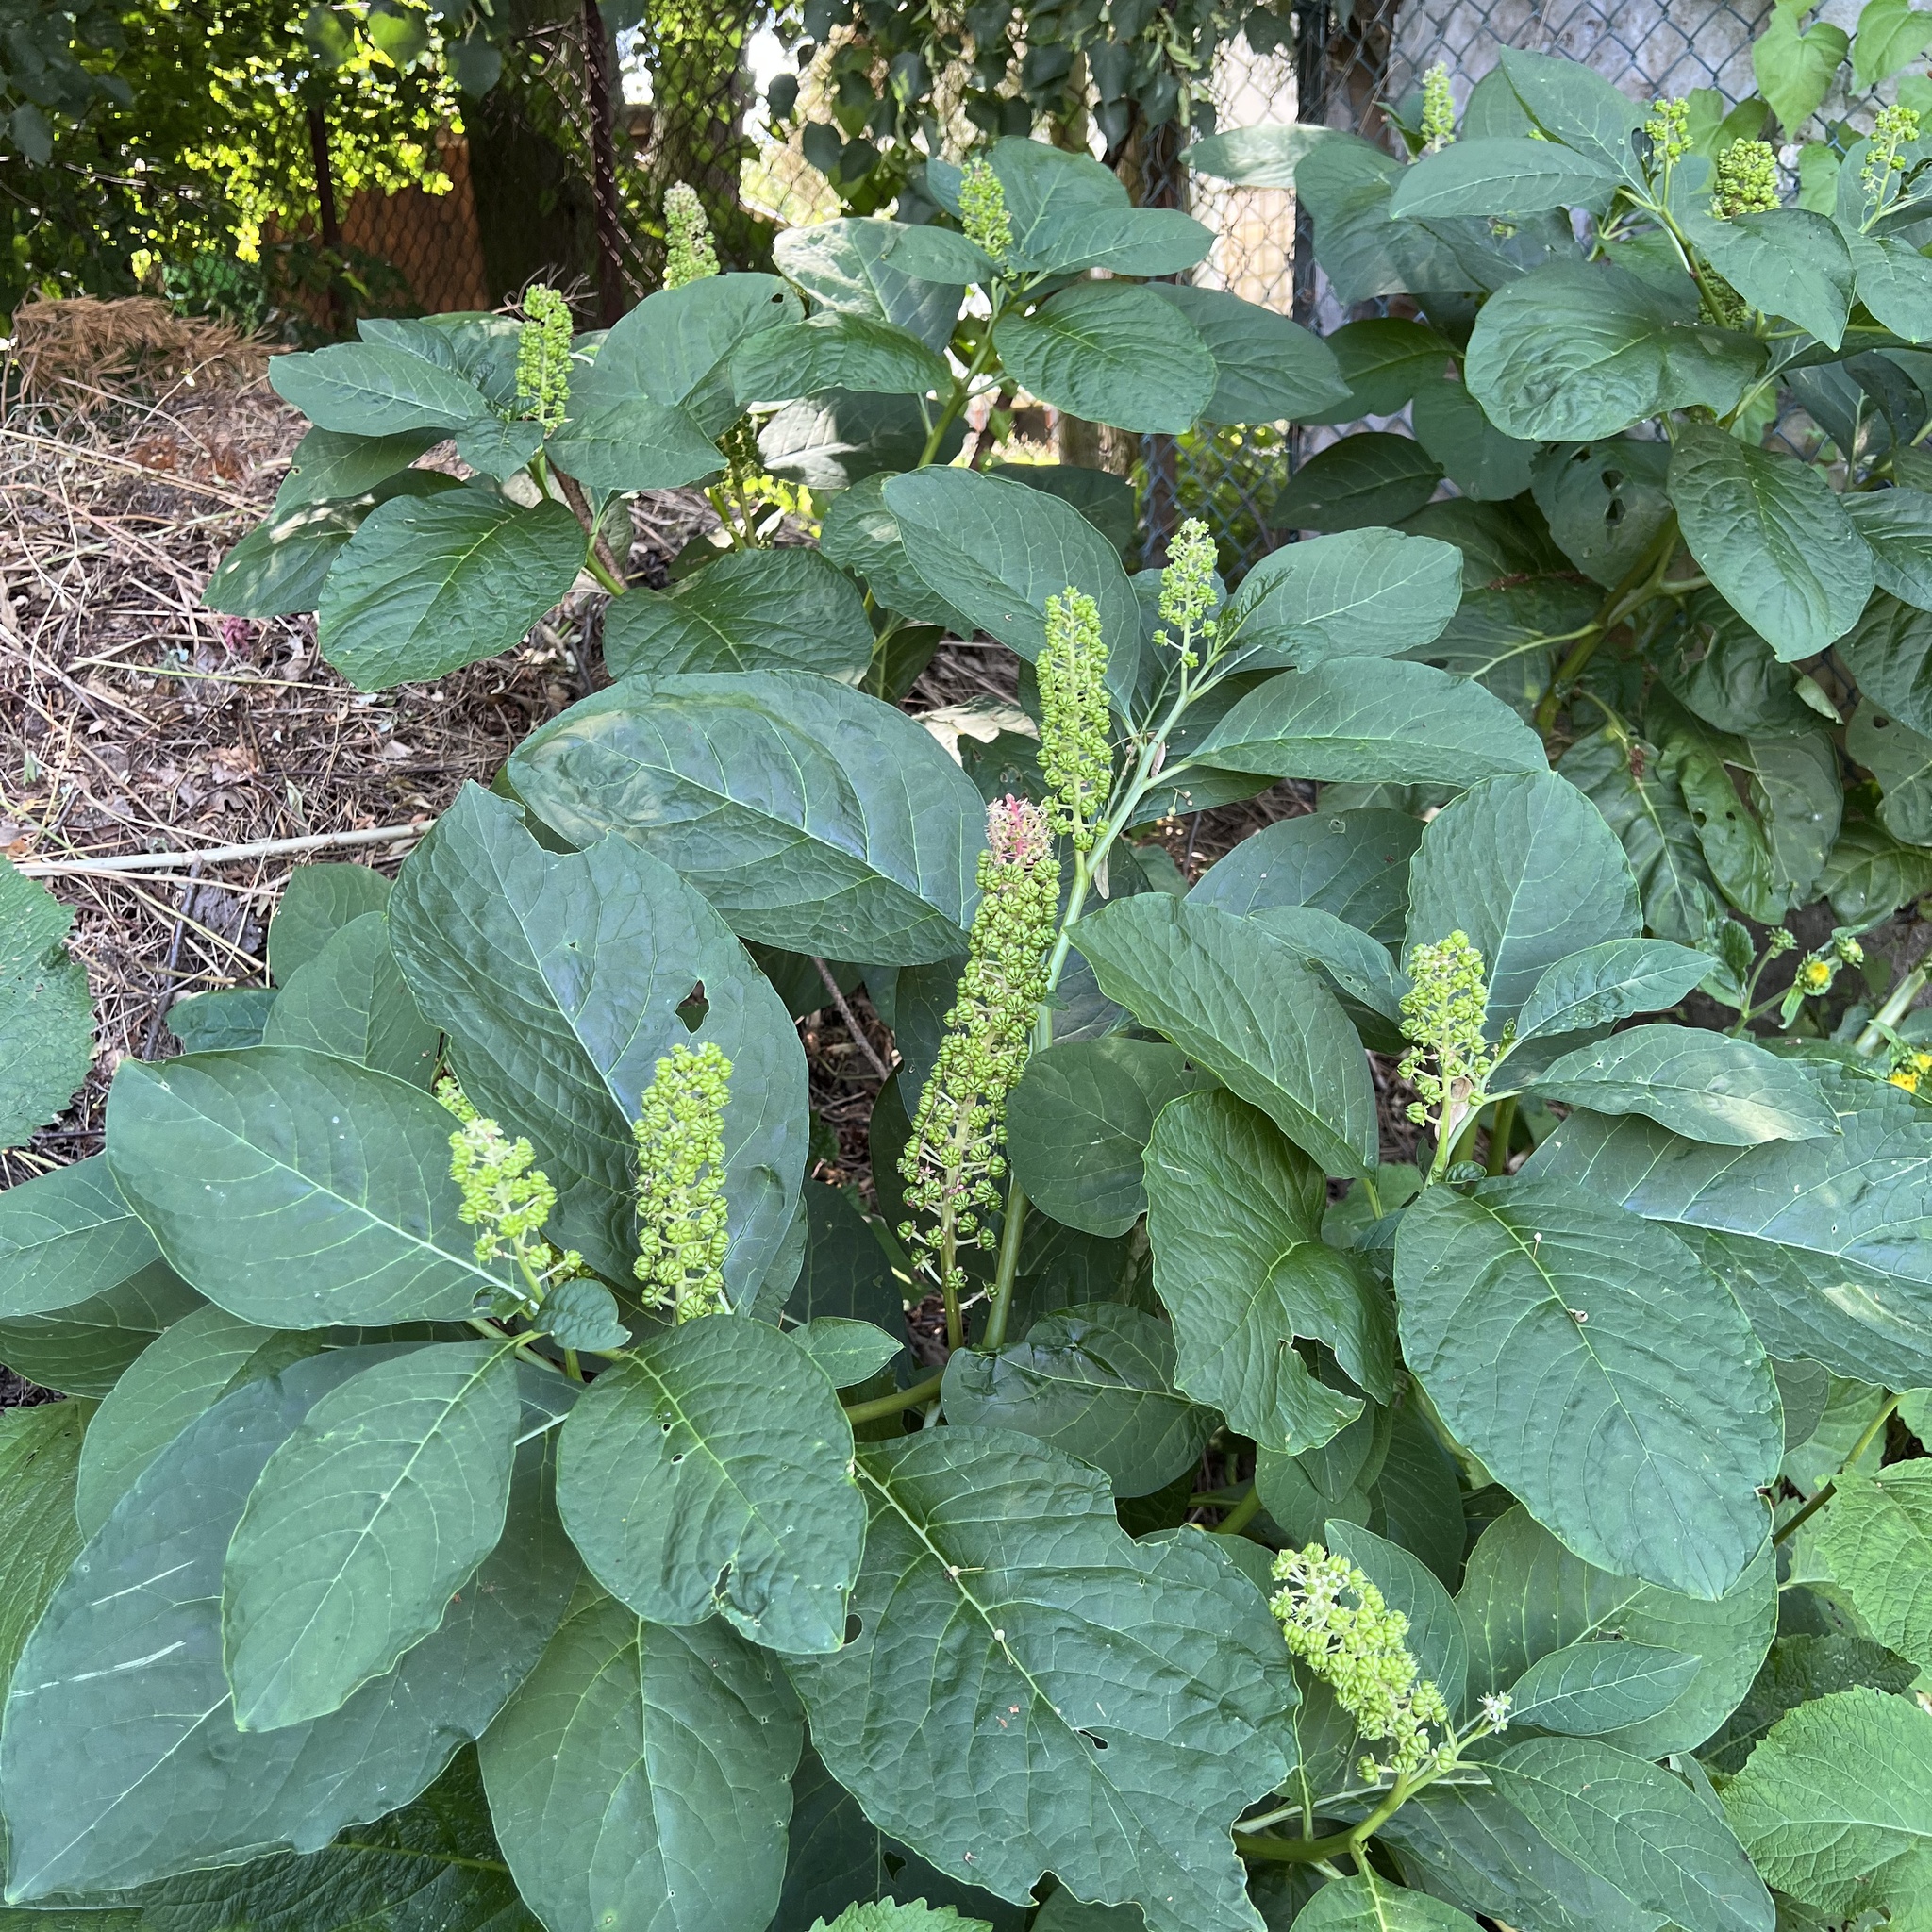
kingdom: Plantae
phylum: Tracheophyta
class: Magnoliopsida
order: Caryophyllales
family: Phytolaccaceae
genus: Phytolacca
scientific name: Phytolacca acinosa
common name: Indian pokeweed
